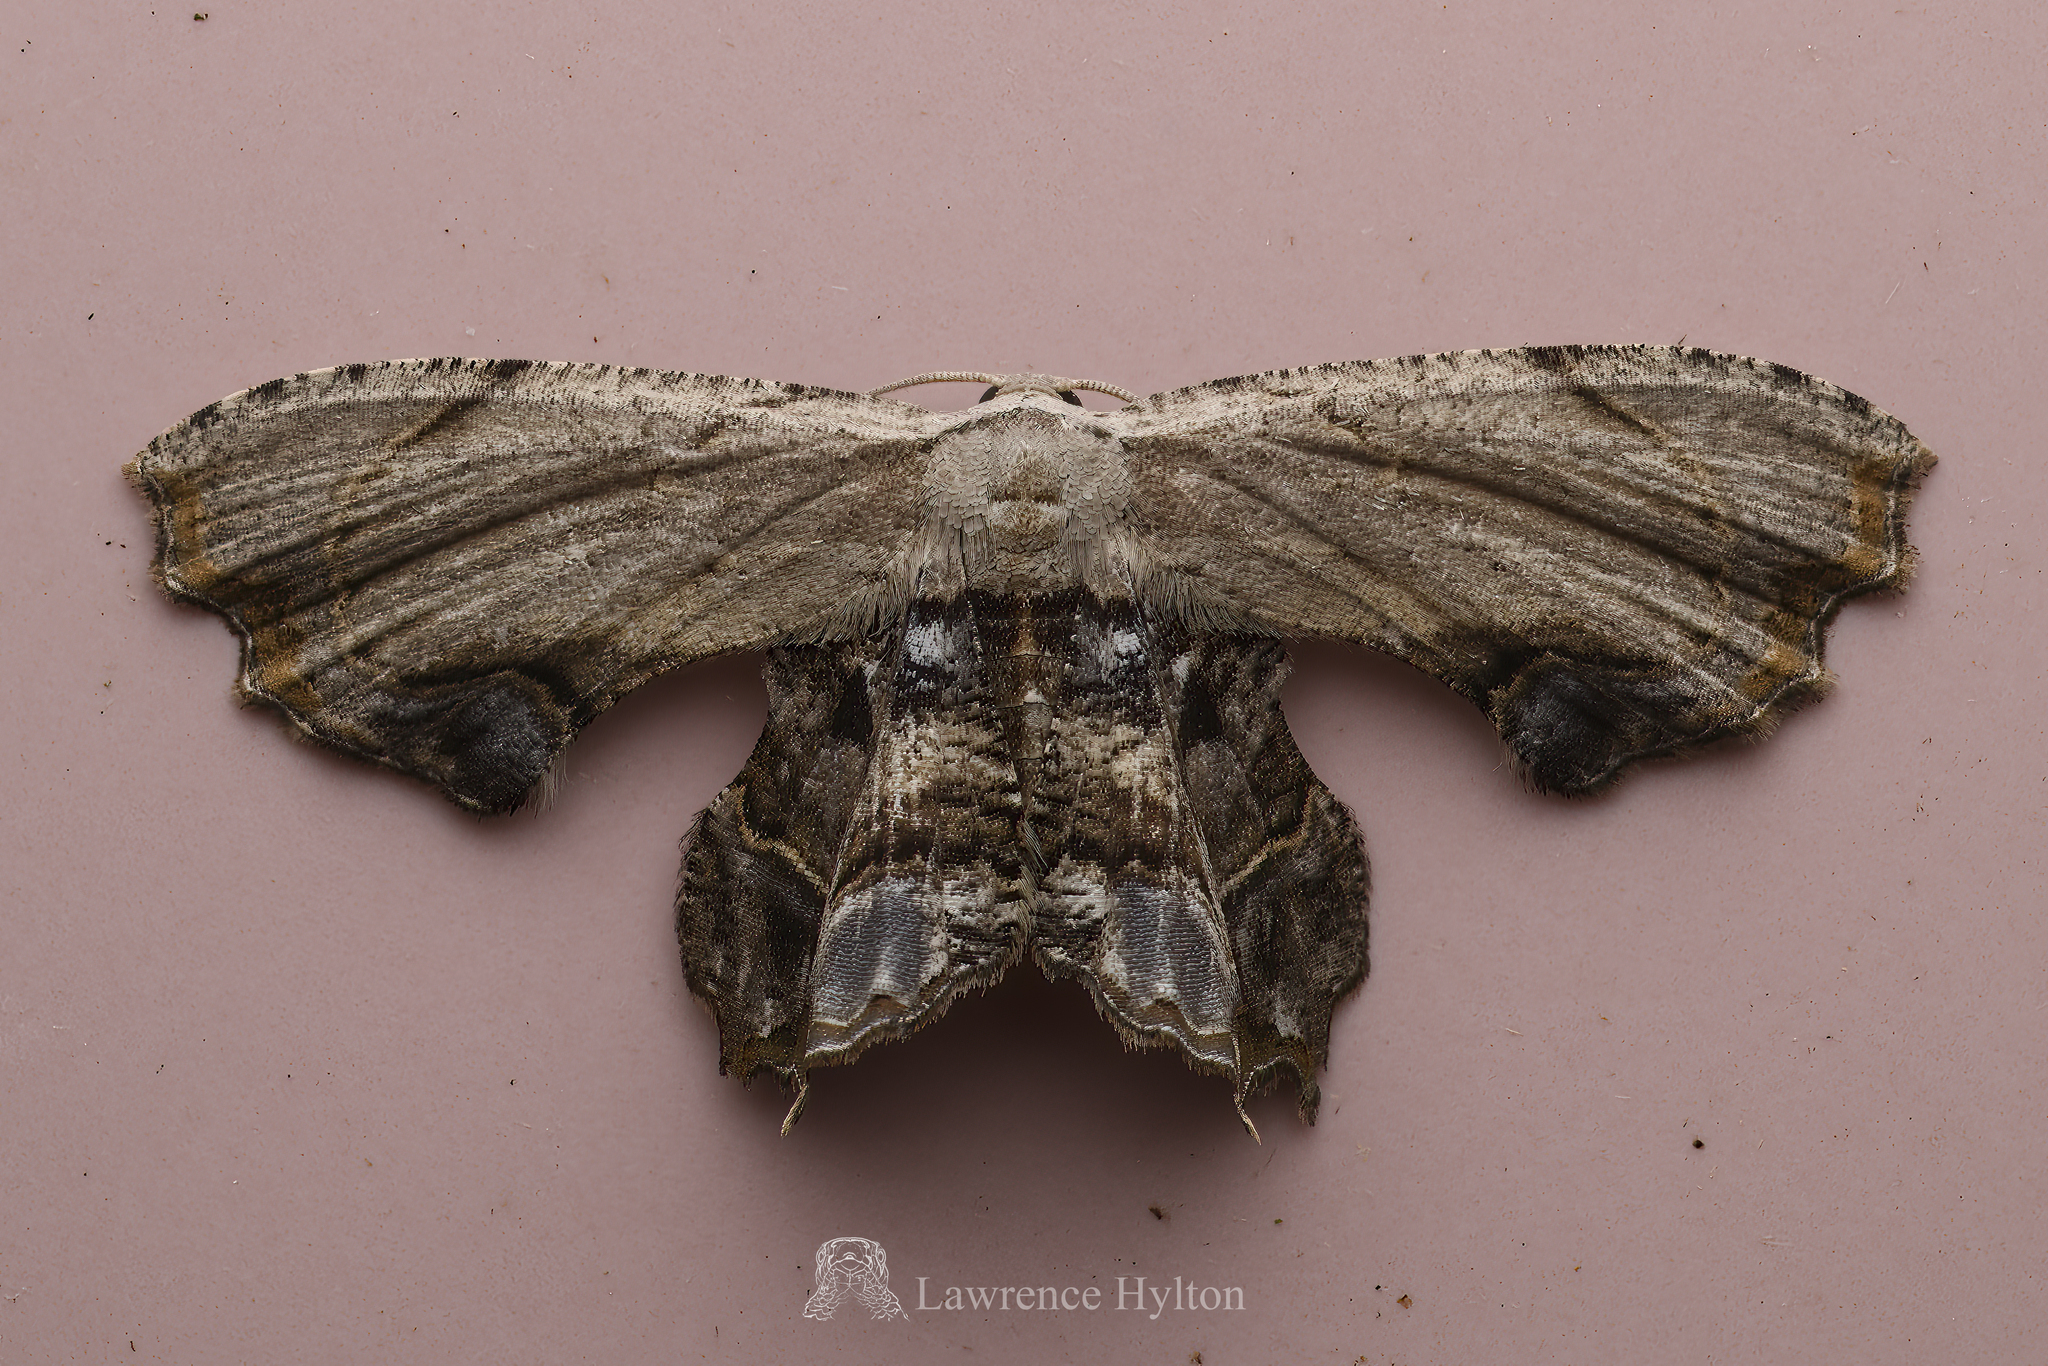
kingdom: Animalia
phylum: Arthropoda
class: Insecta
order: Lepidoptera
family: Uraniidae
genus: Dysaethria
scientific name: Dysaethria erasaria
